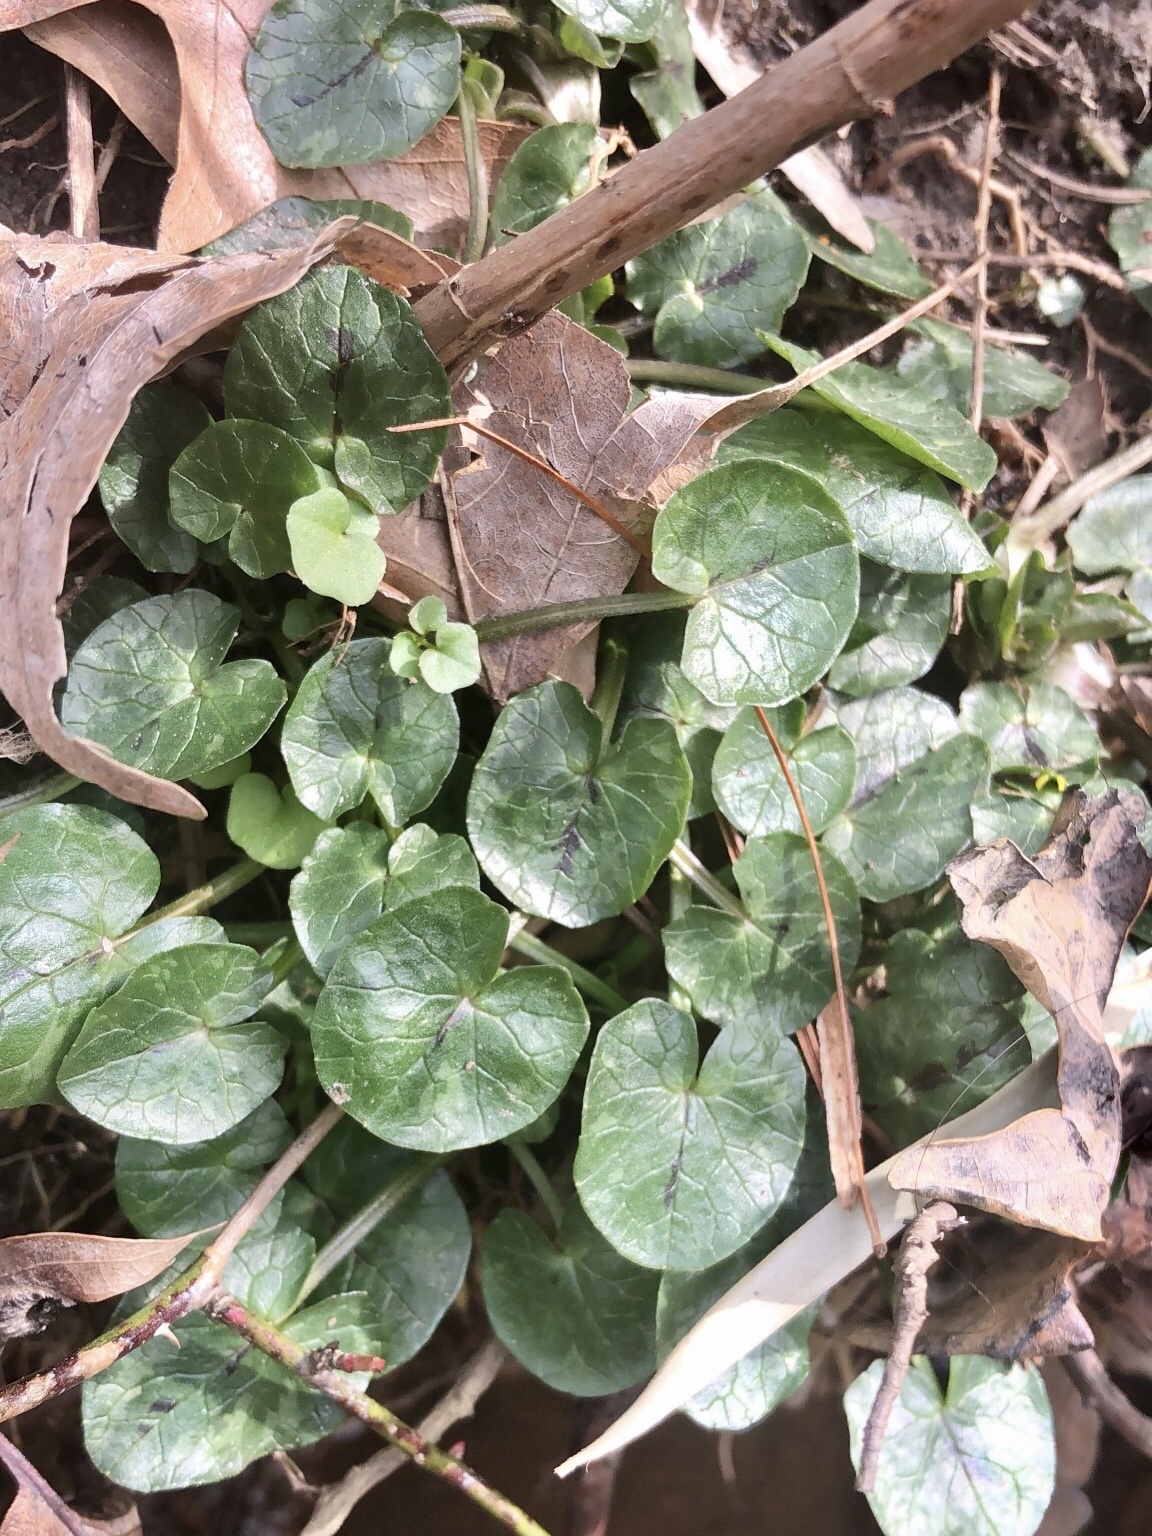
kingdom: Plantae
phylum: Tracheophyta
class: Magnoliopsida
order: Ranunculales
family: Ranunculaceae
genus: Ficaria
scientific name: Ficaria verna
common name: Lesser celandine
